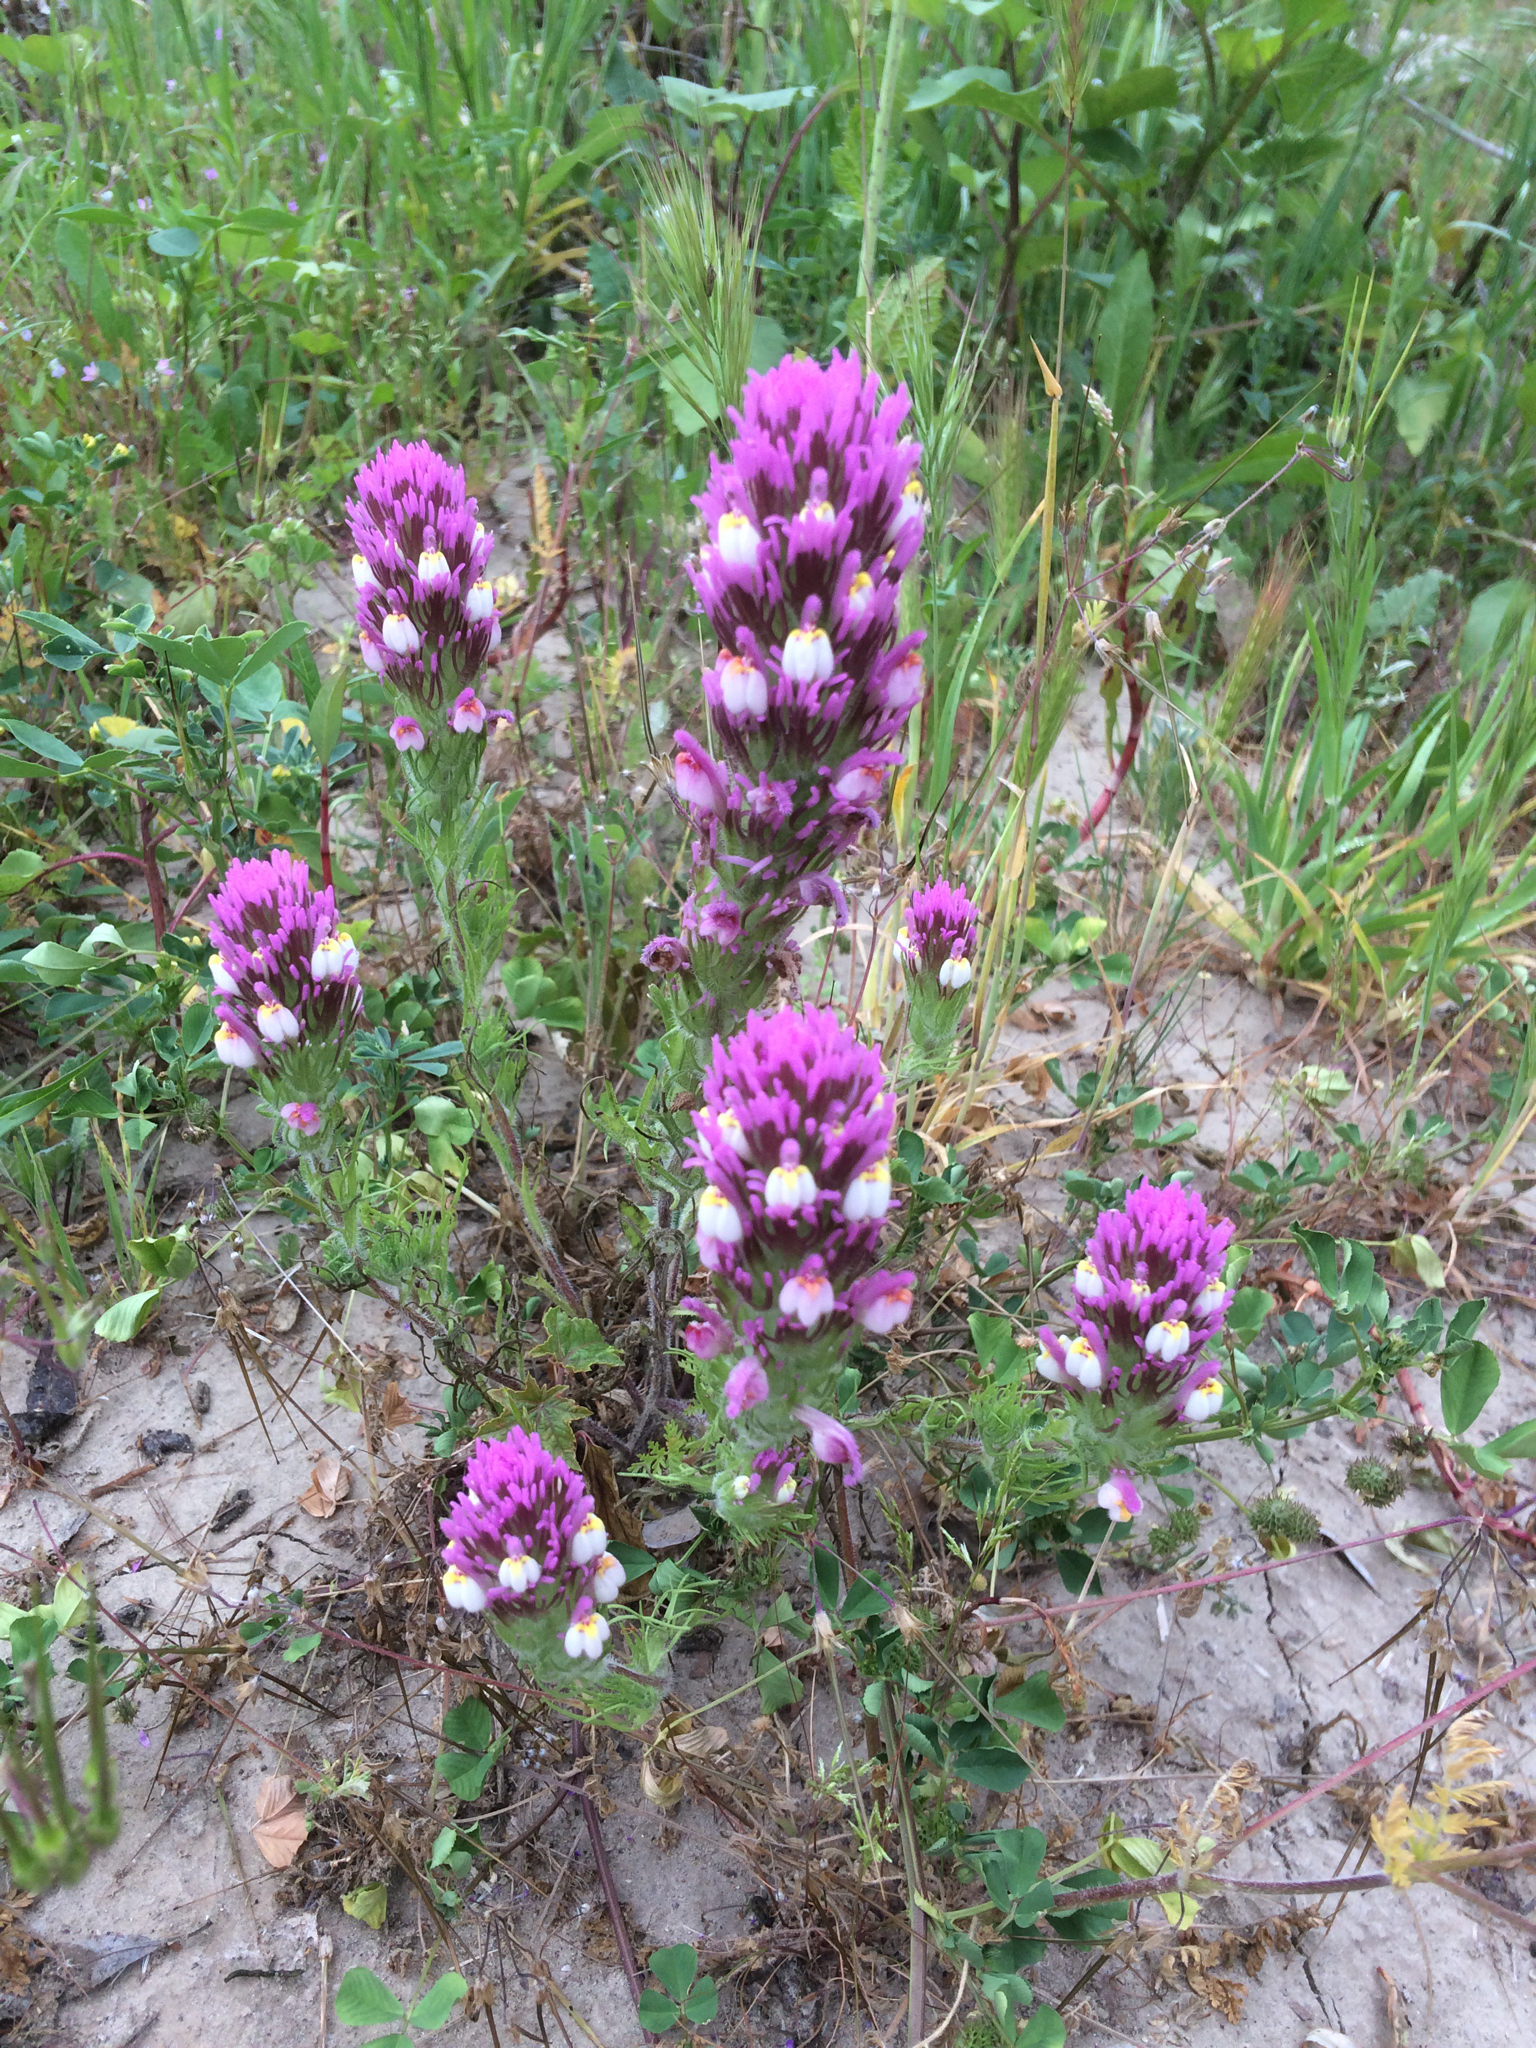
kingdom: Plantae
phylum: Tracheophyta
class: Magnoliopsida
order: Lamiales
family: Orobanchaceae
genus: Castilleja
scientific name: Castilleja exserta
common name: Purple owl-clover
